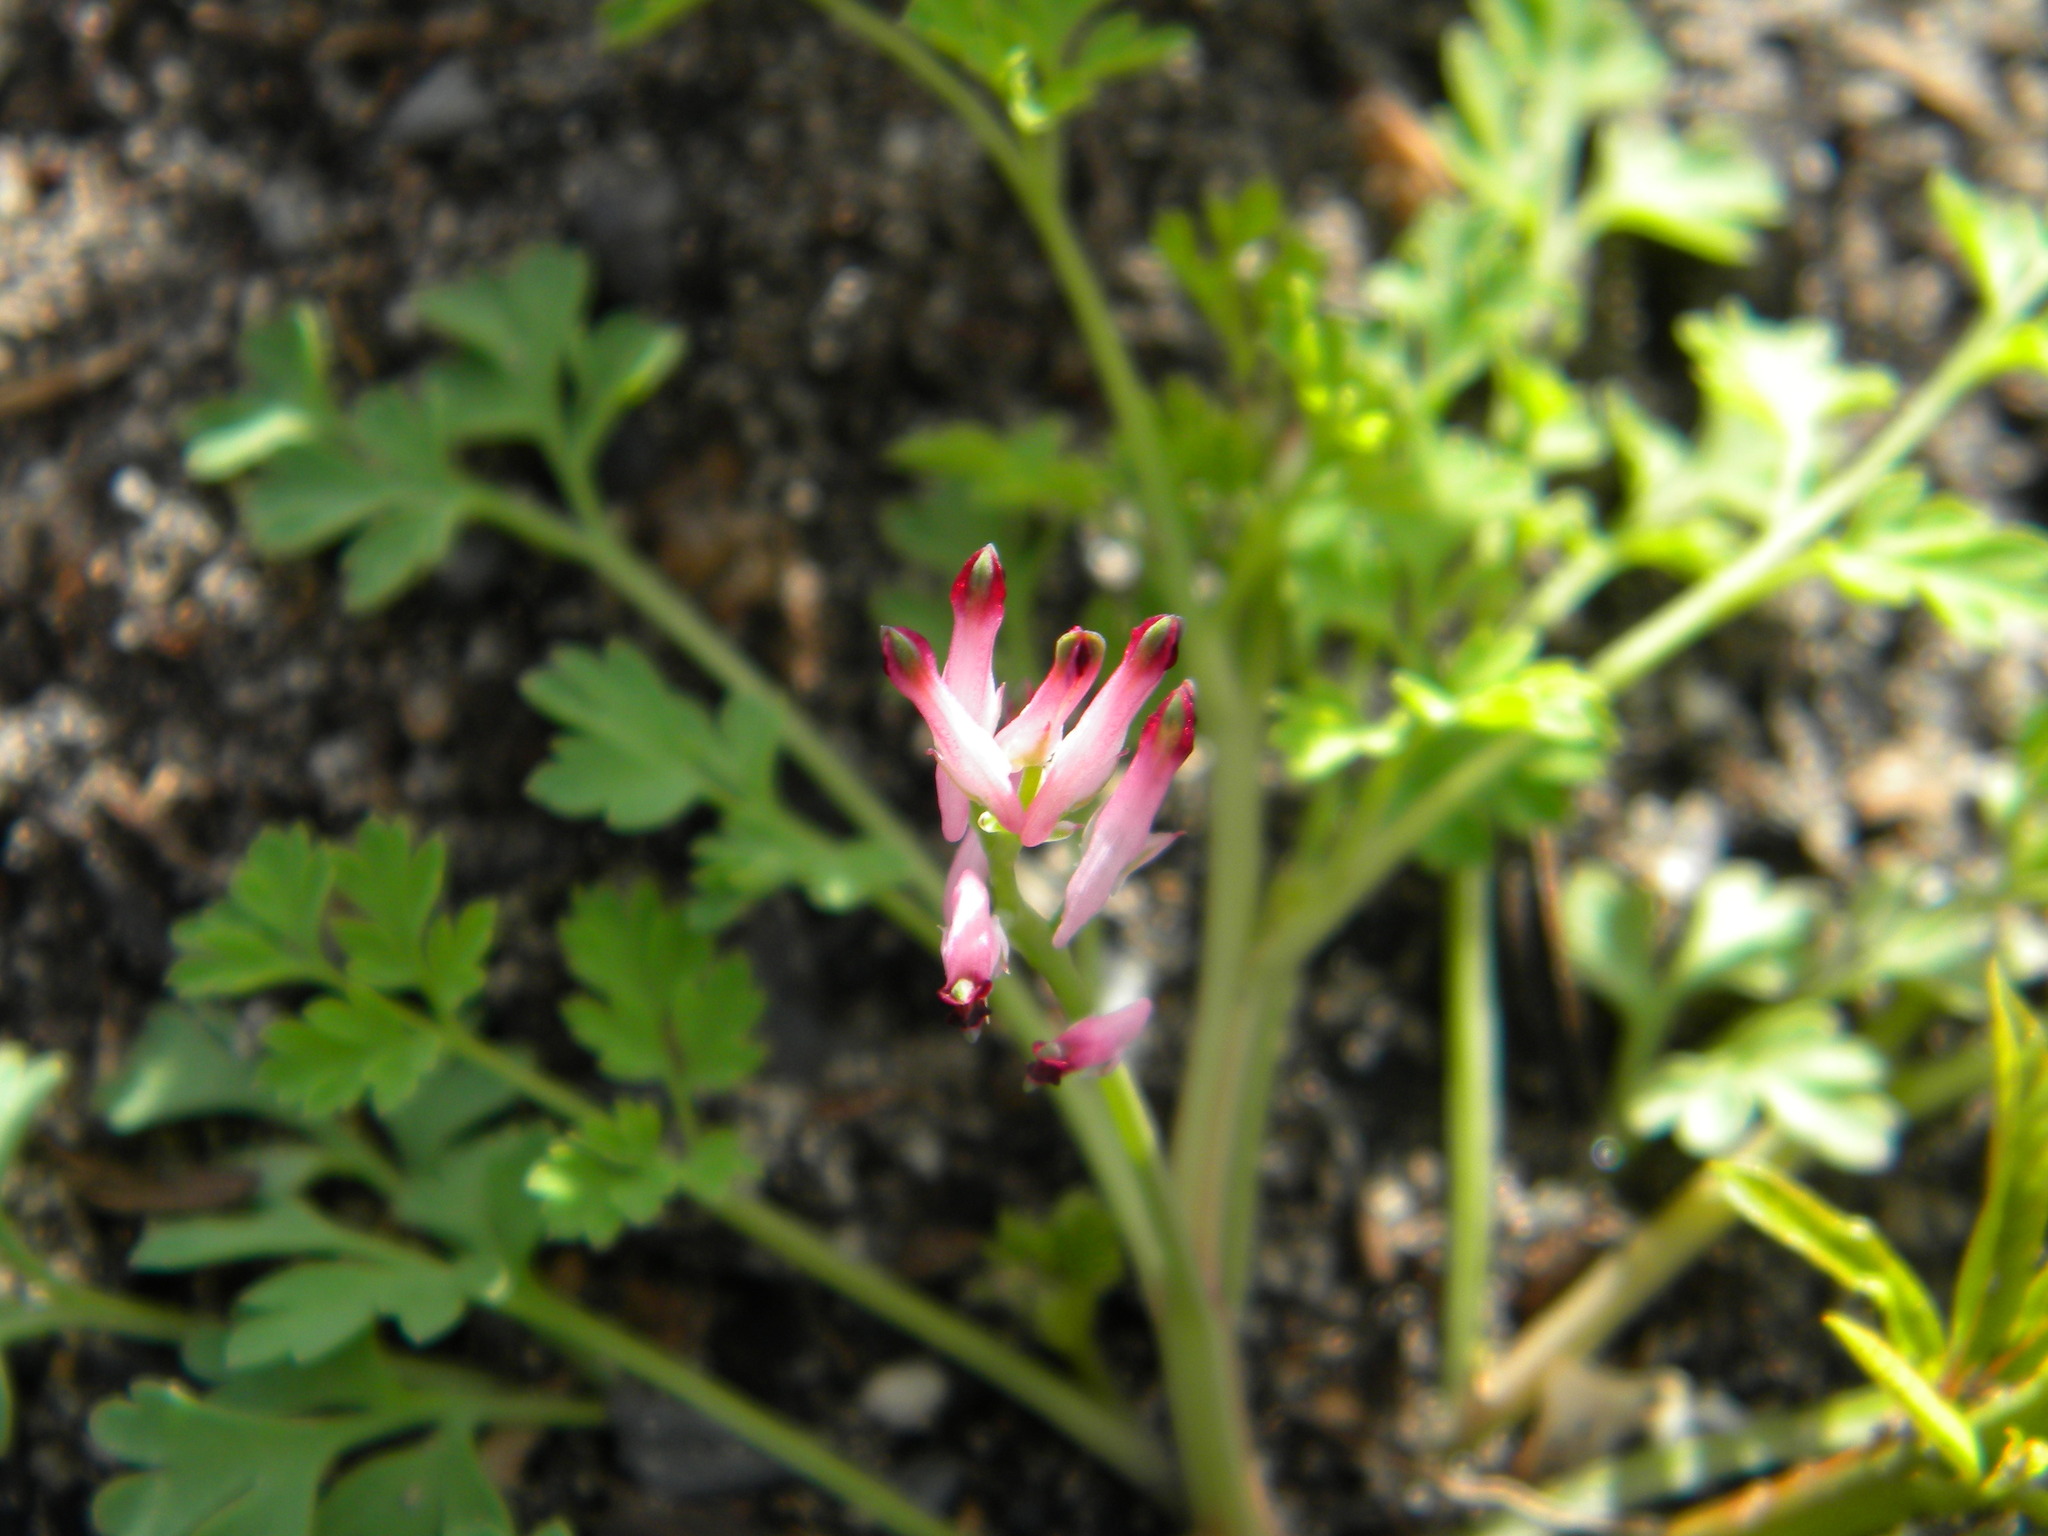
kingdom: Plantae
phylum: Tracheophyta
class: Magnoliopsida
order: Ranunculales
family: Papaveraceae
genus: Fumaria
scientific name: Fumaria muralis
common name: Common ramping-fumitory
